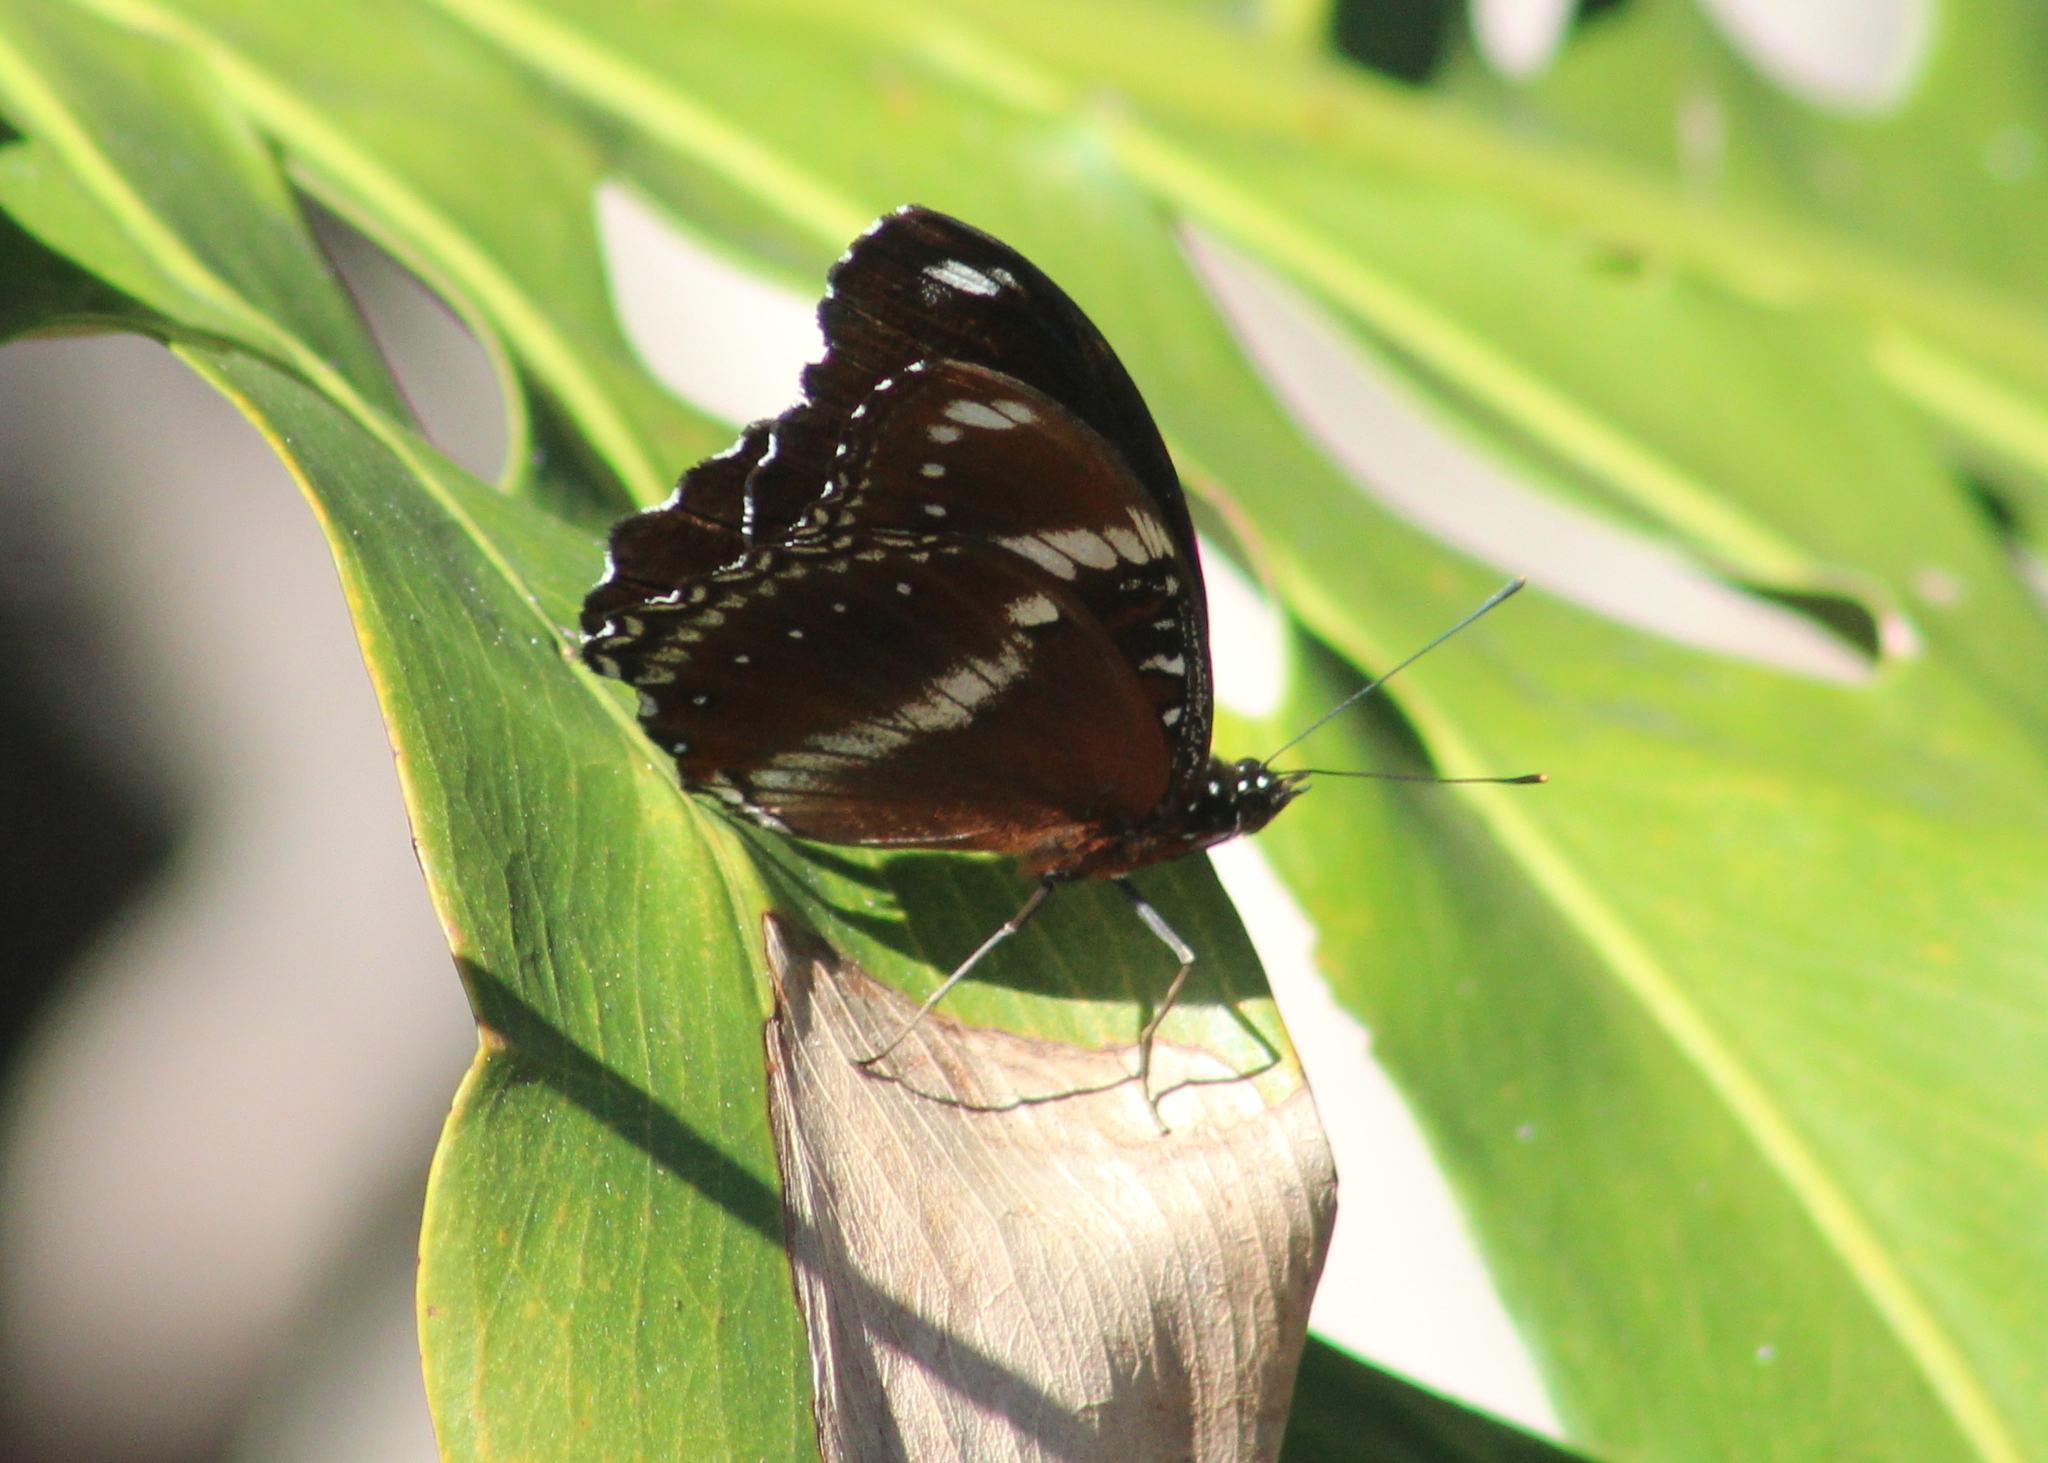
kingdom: Animalia
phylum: Arthropoda
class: Insecta
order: Lepidoptera
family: Nymphalidae
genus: Hypolimnas
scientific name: Hypolimnas bolina
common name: Great eggfly
